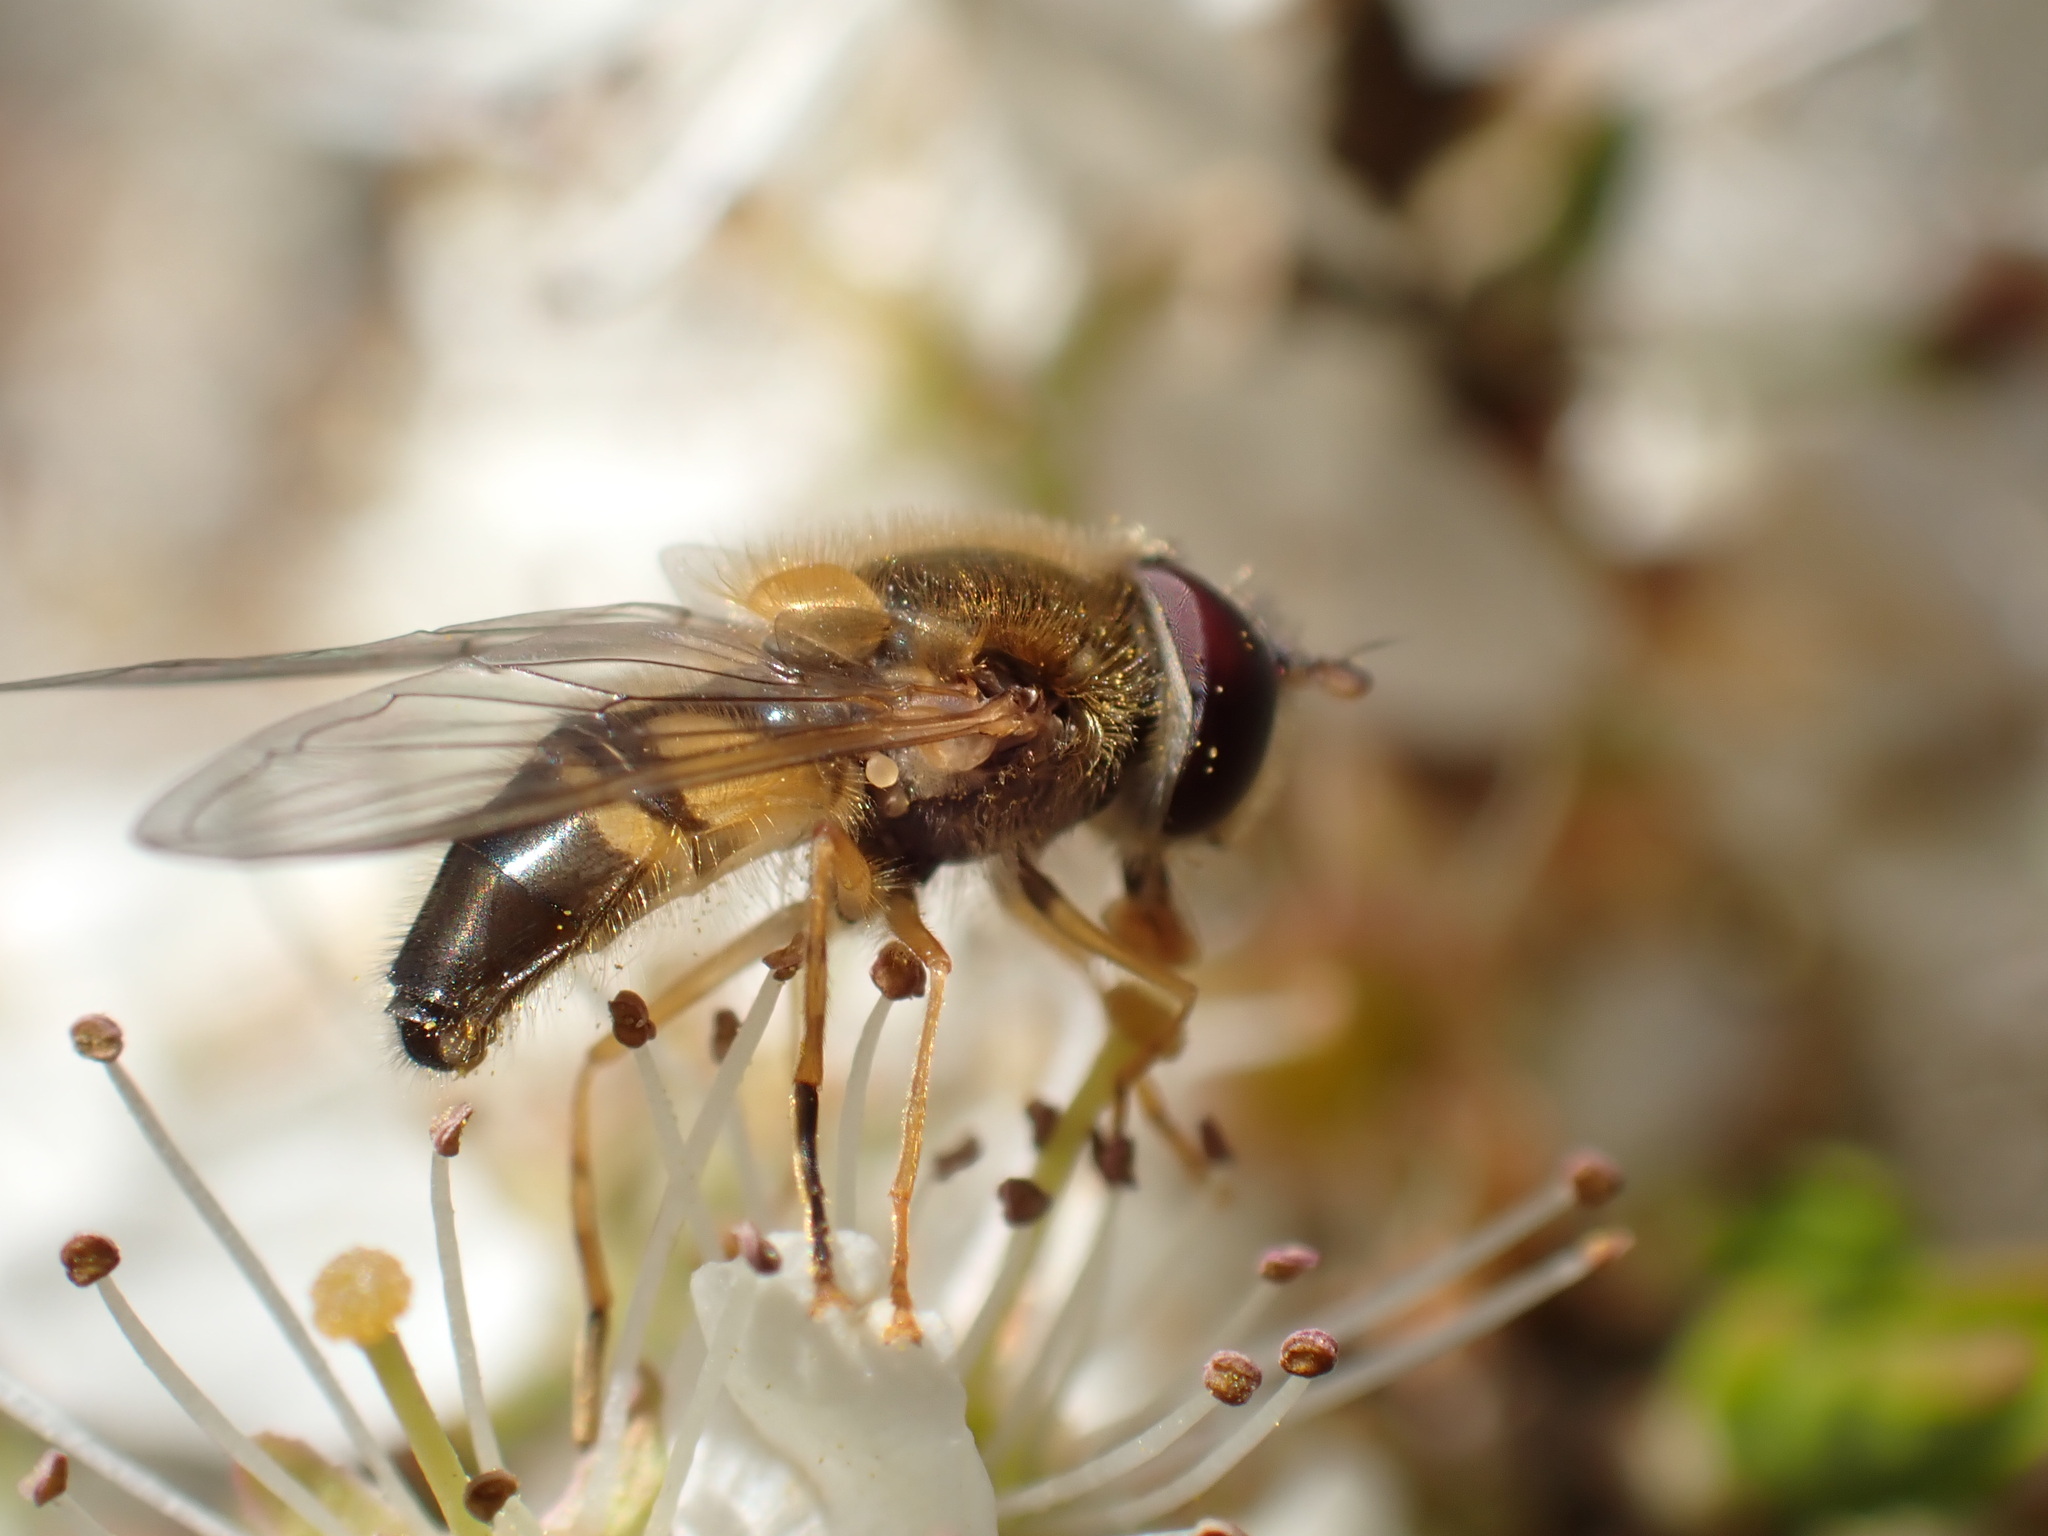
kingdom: Animalia
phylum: Arthropoda
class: Insecta
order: Diptera
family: Syrphidae
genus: Epistrophe
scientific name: Epistrophe eligans
